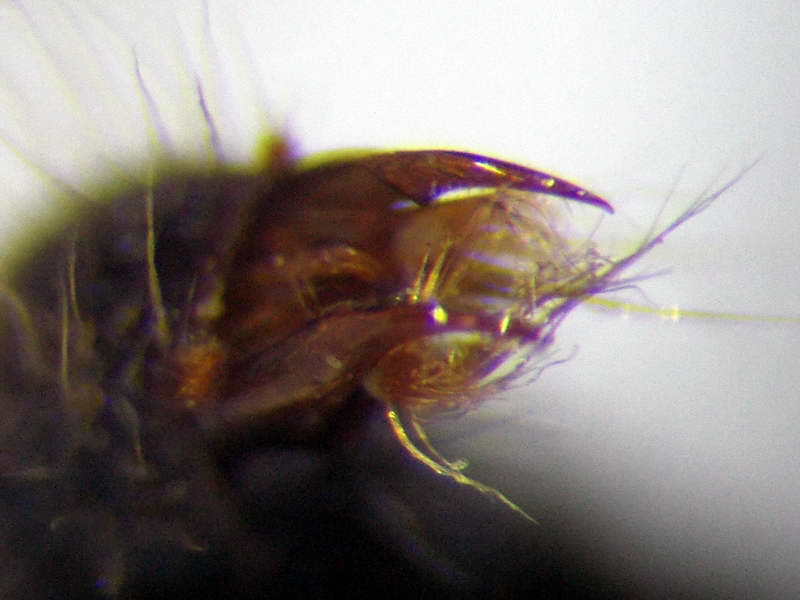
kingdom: Animalia
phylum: Arthropoda
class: Insecta
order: Hymenoptera
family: Mutillidae
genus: Smicromyrme
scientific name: Smicromyrme rufipes
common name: Small velvet ant
